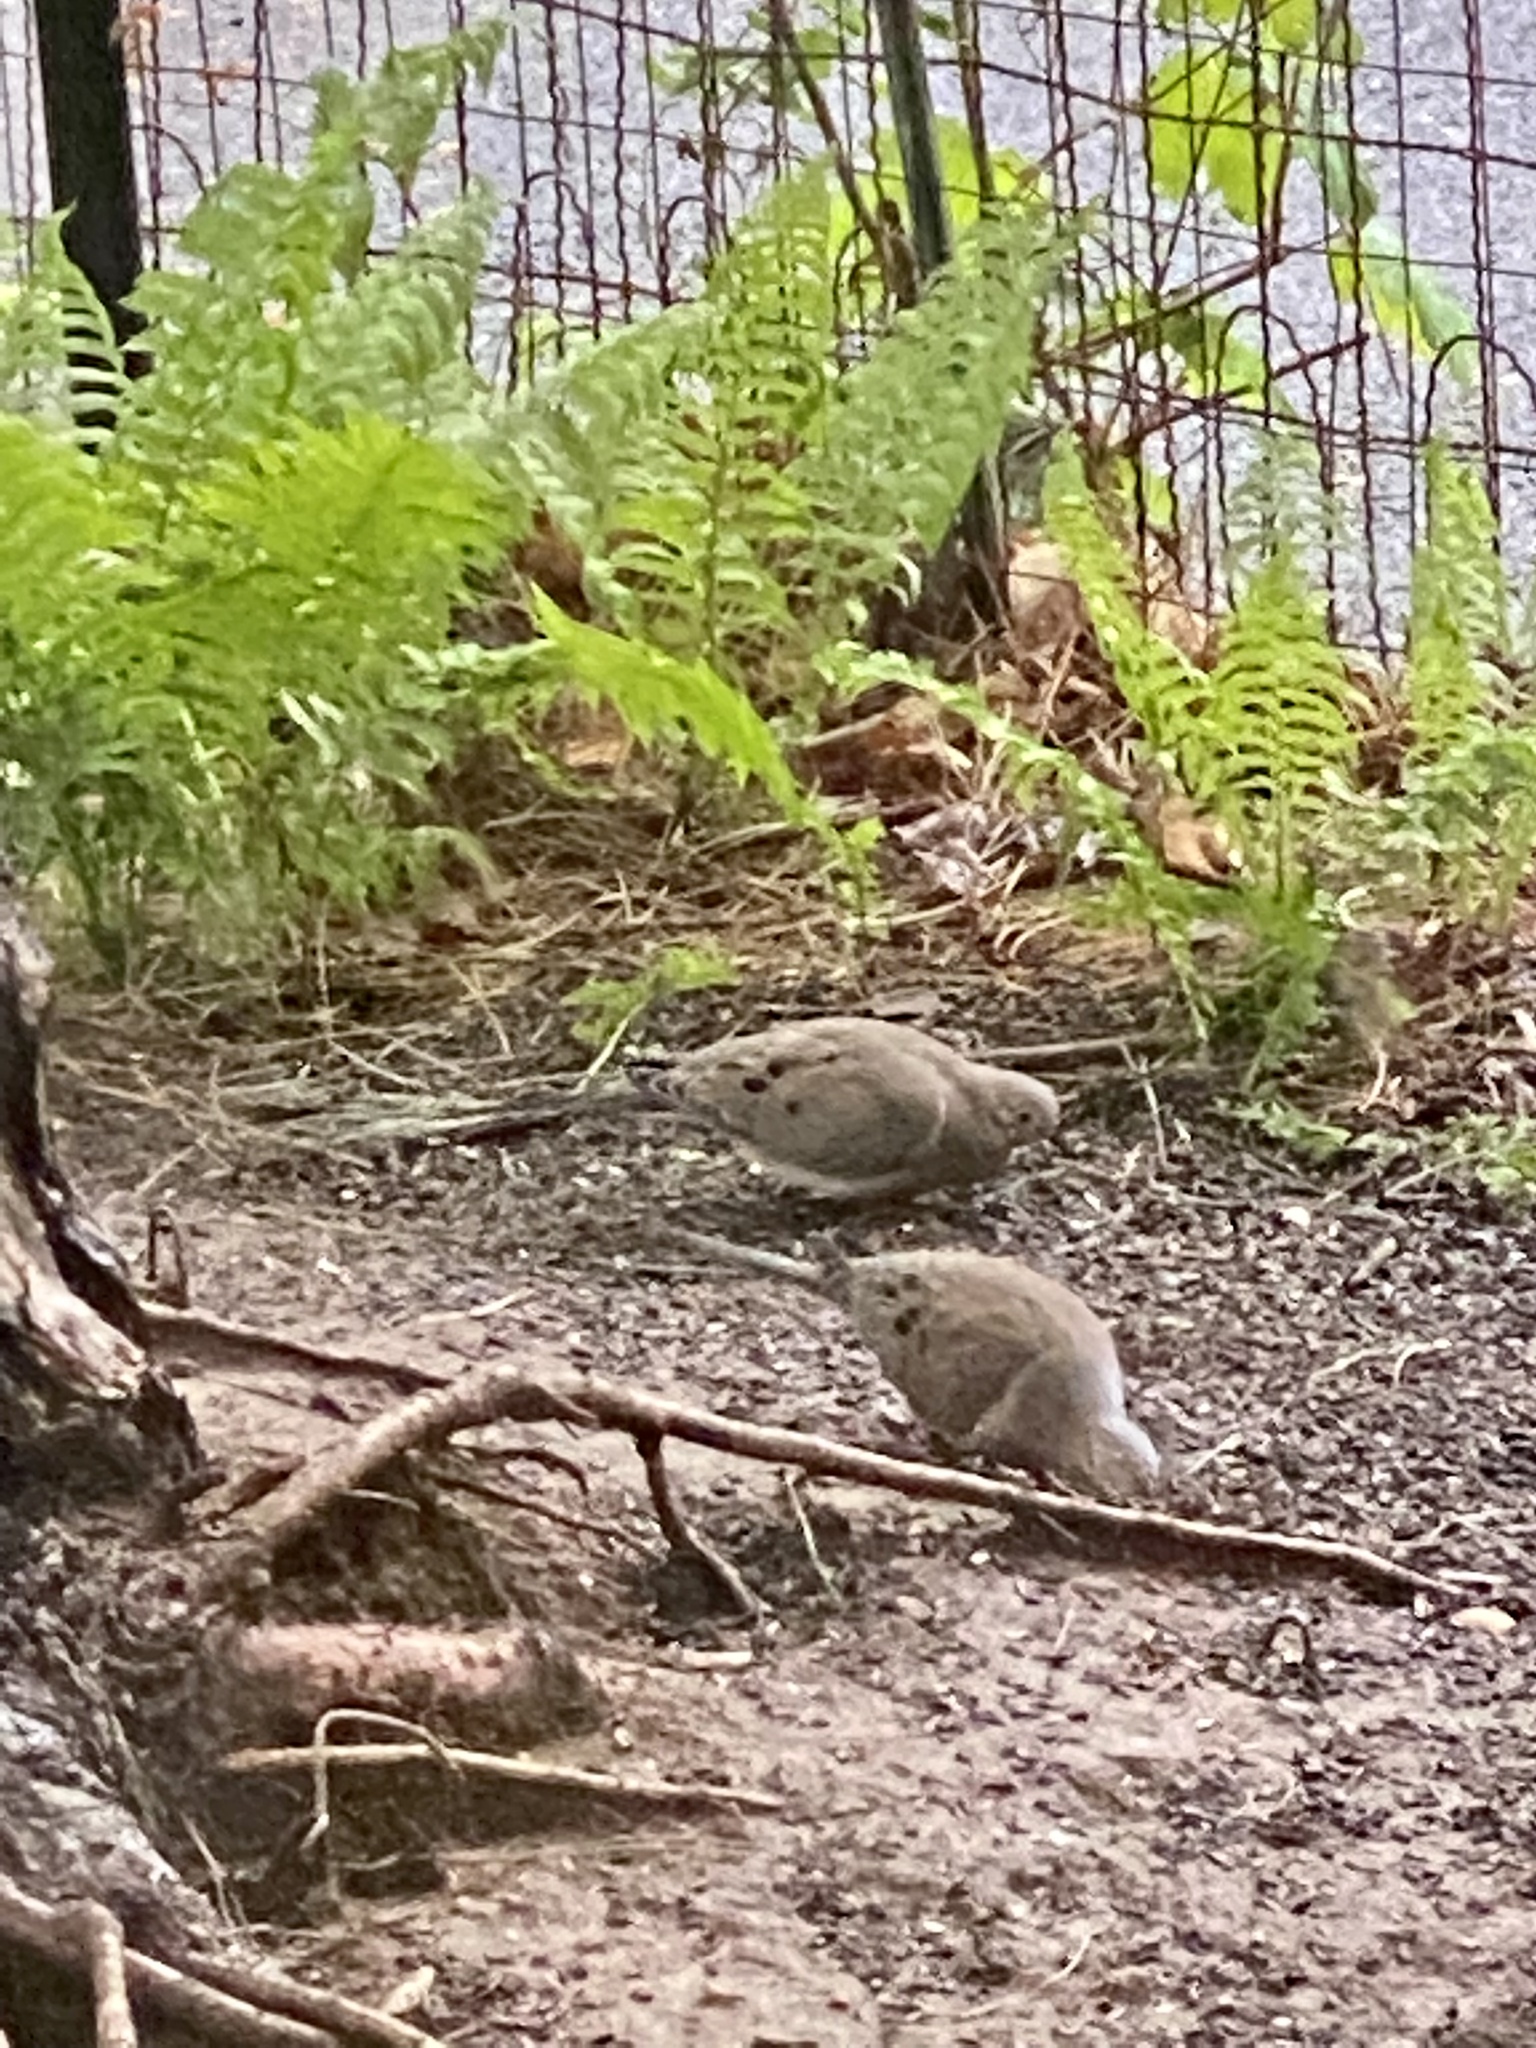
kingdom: Animalia
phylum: Chordata
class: Aves
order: Columbiformes
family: Columbidae
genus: Zenaida
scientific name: Zenaida macroura
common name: Mourning dove
